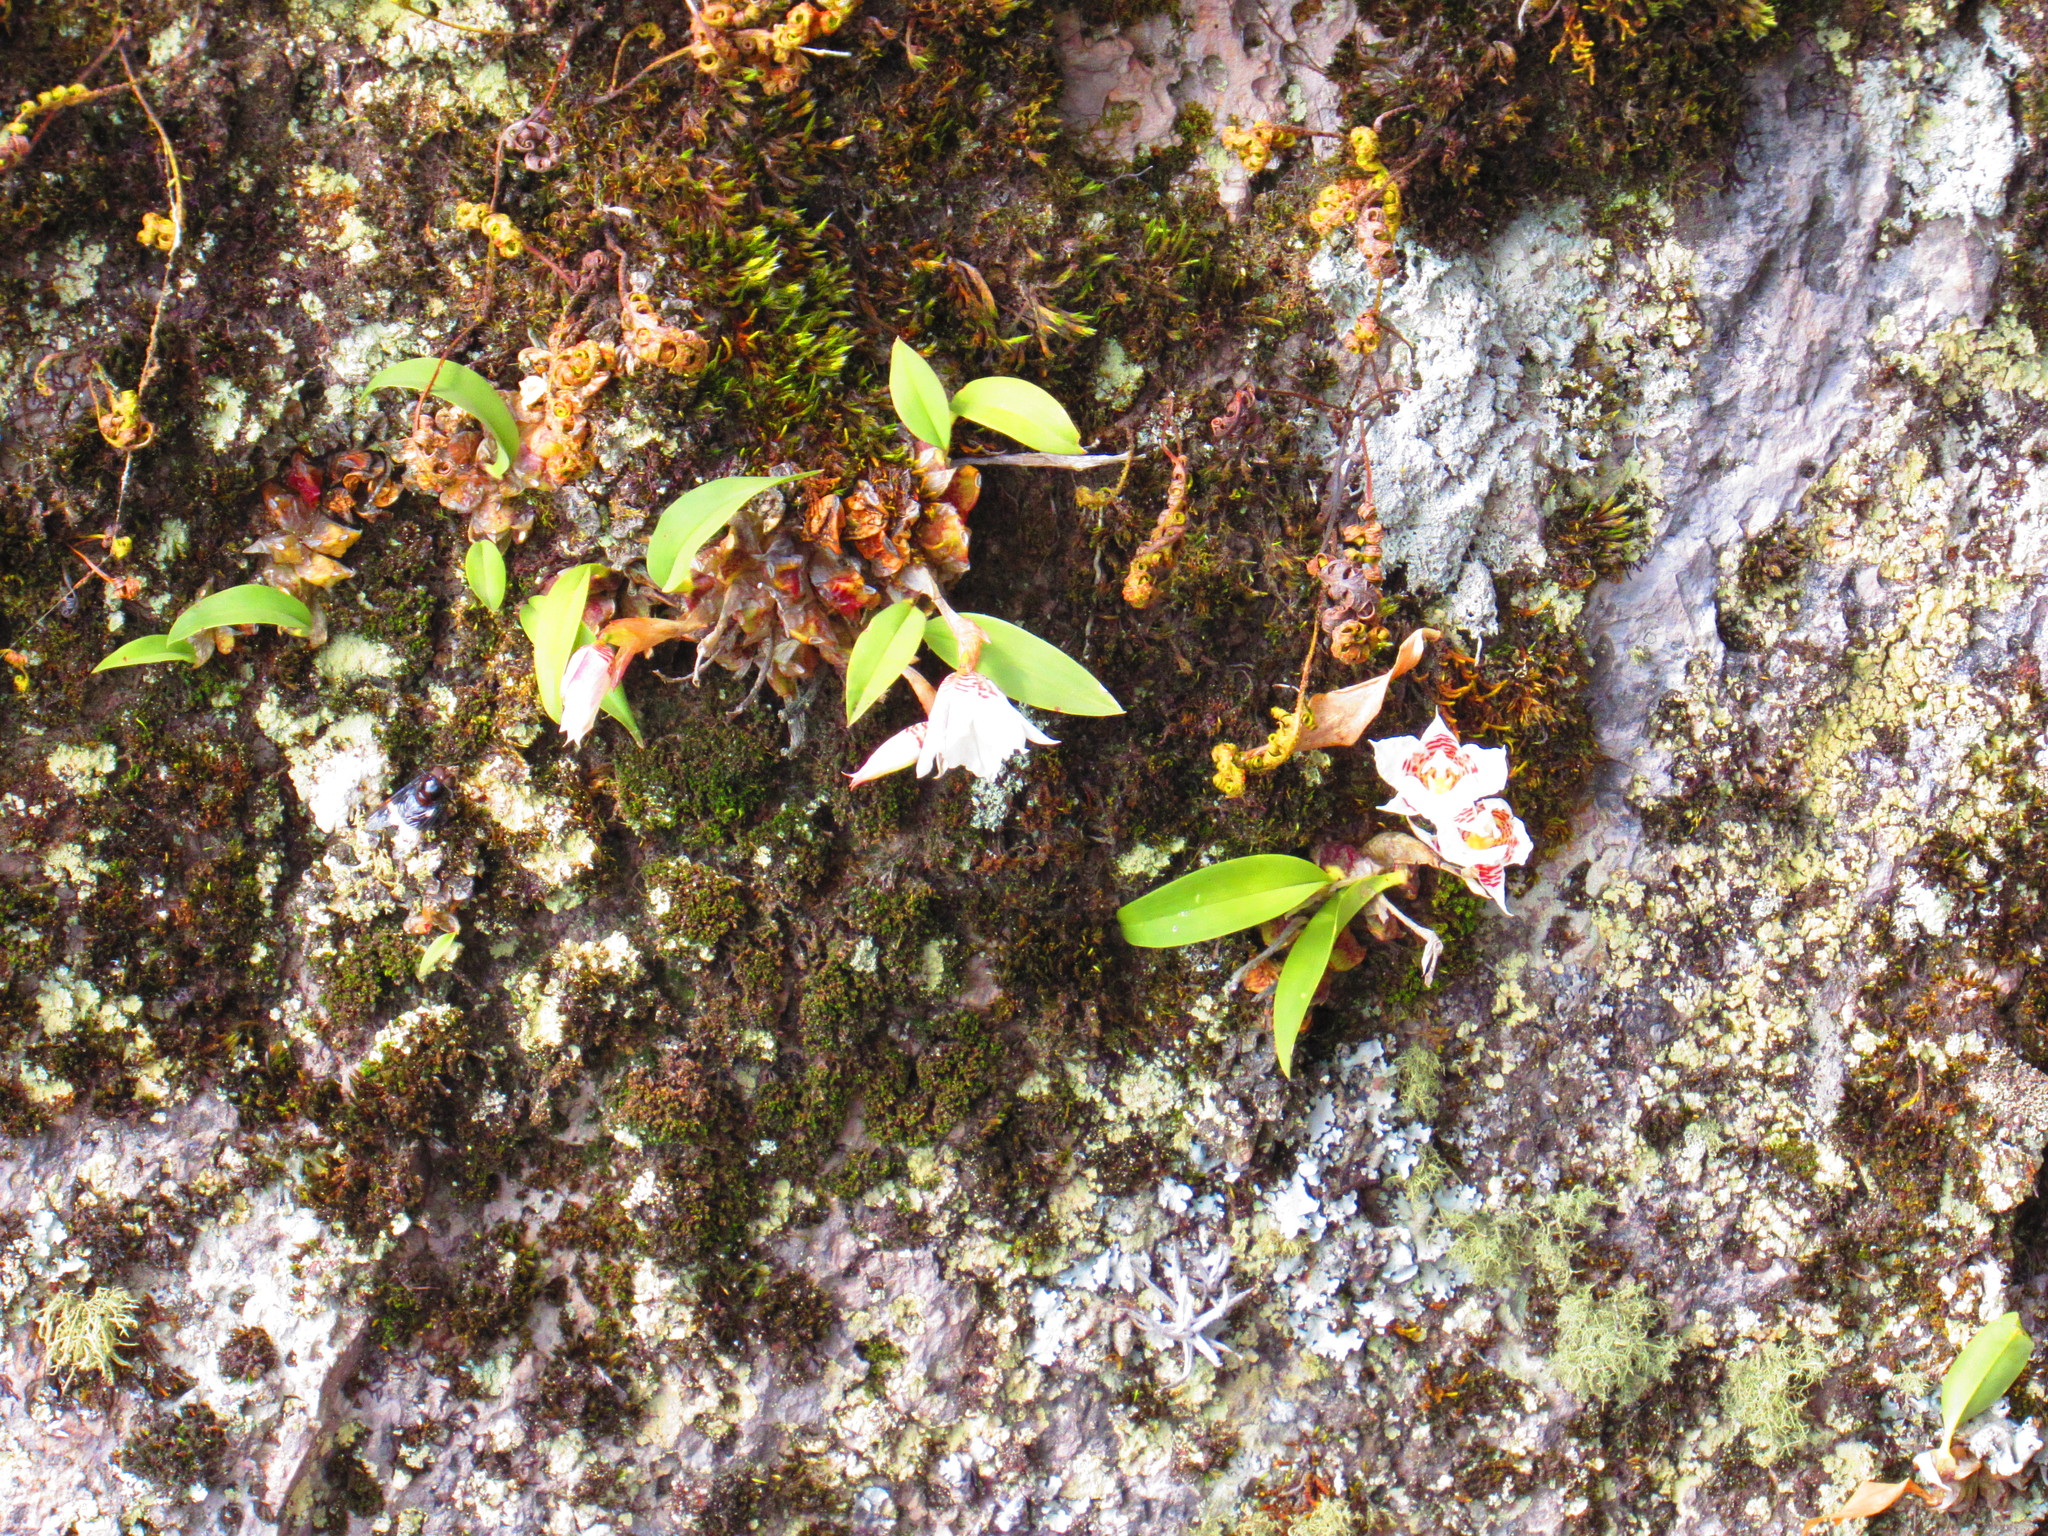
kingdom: Plantae
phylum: Tracheophyta
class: Liliopsida
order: Asparagales
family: Orchidaceae
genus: Rhynchostele
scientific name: Rhynchostele cervantesii
